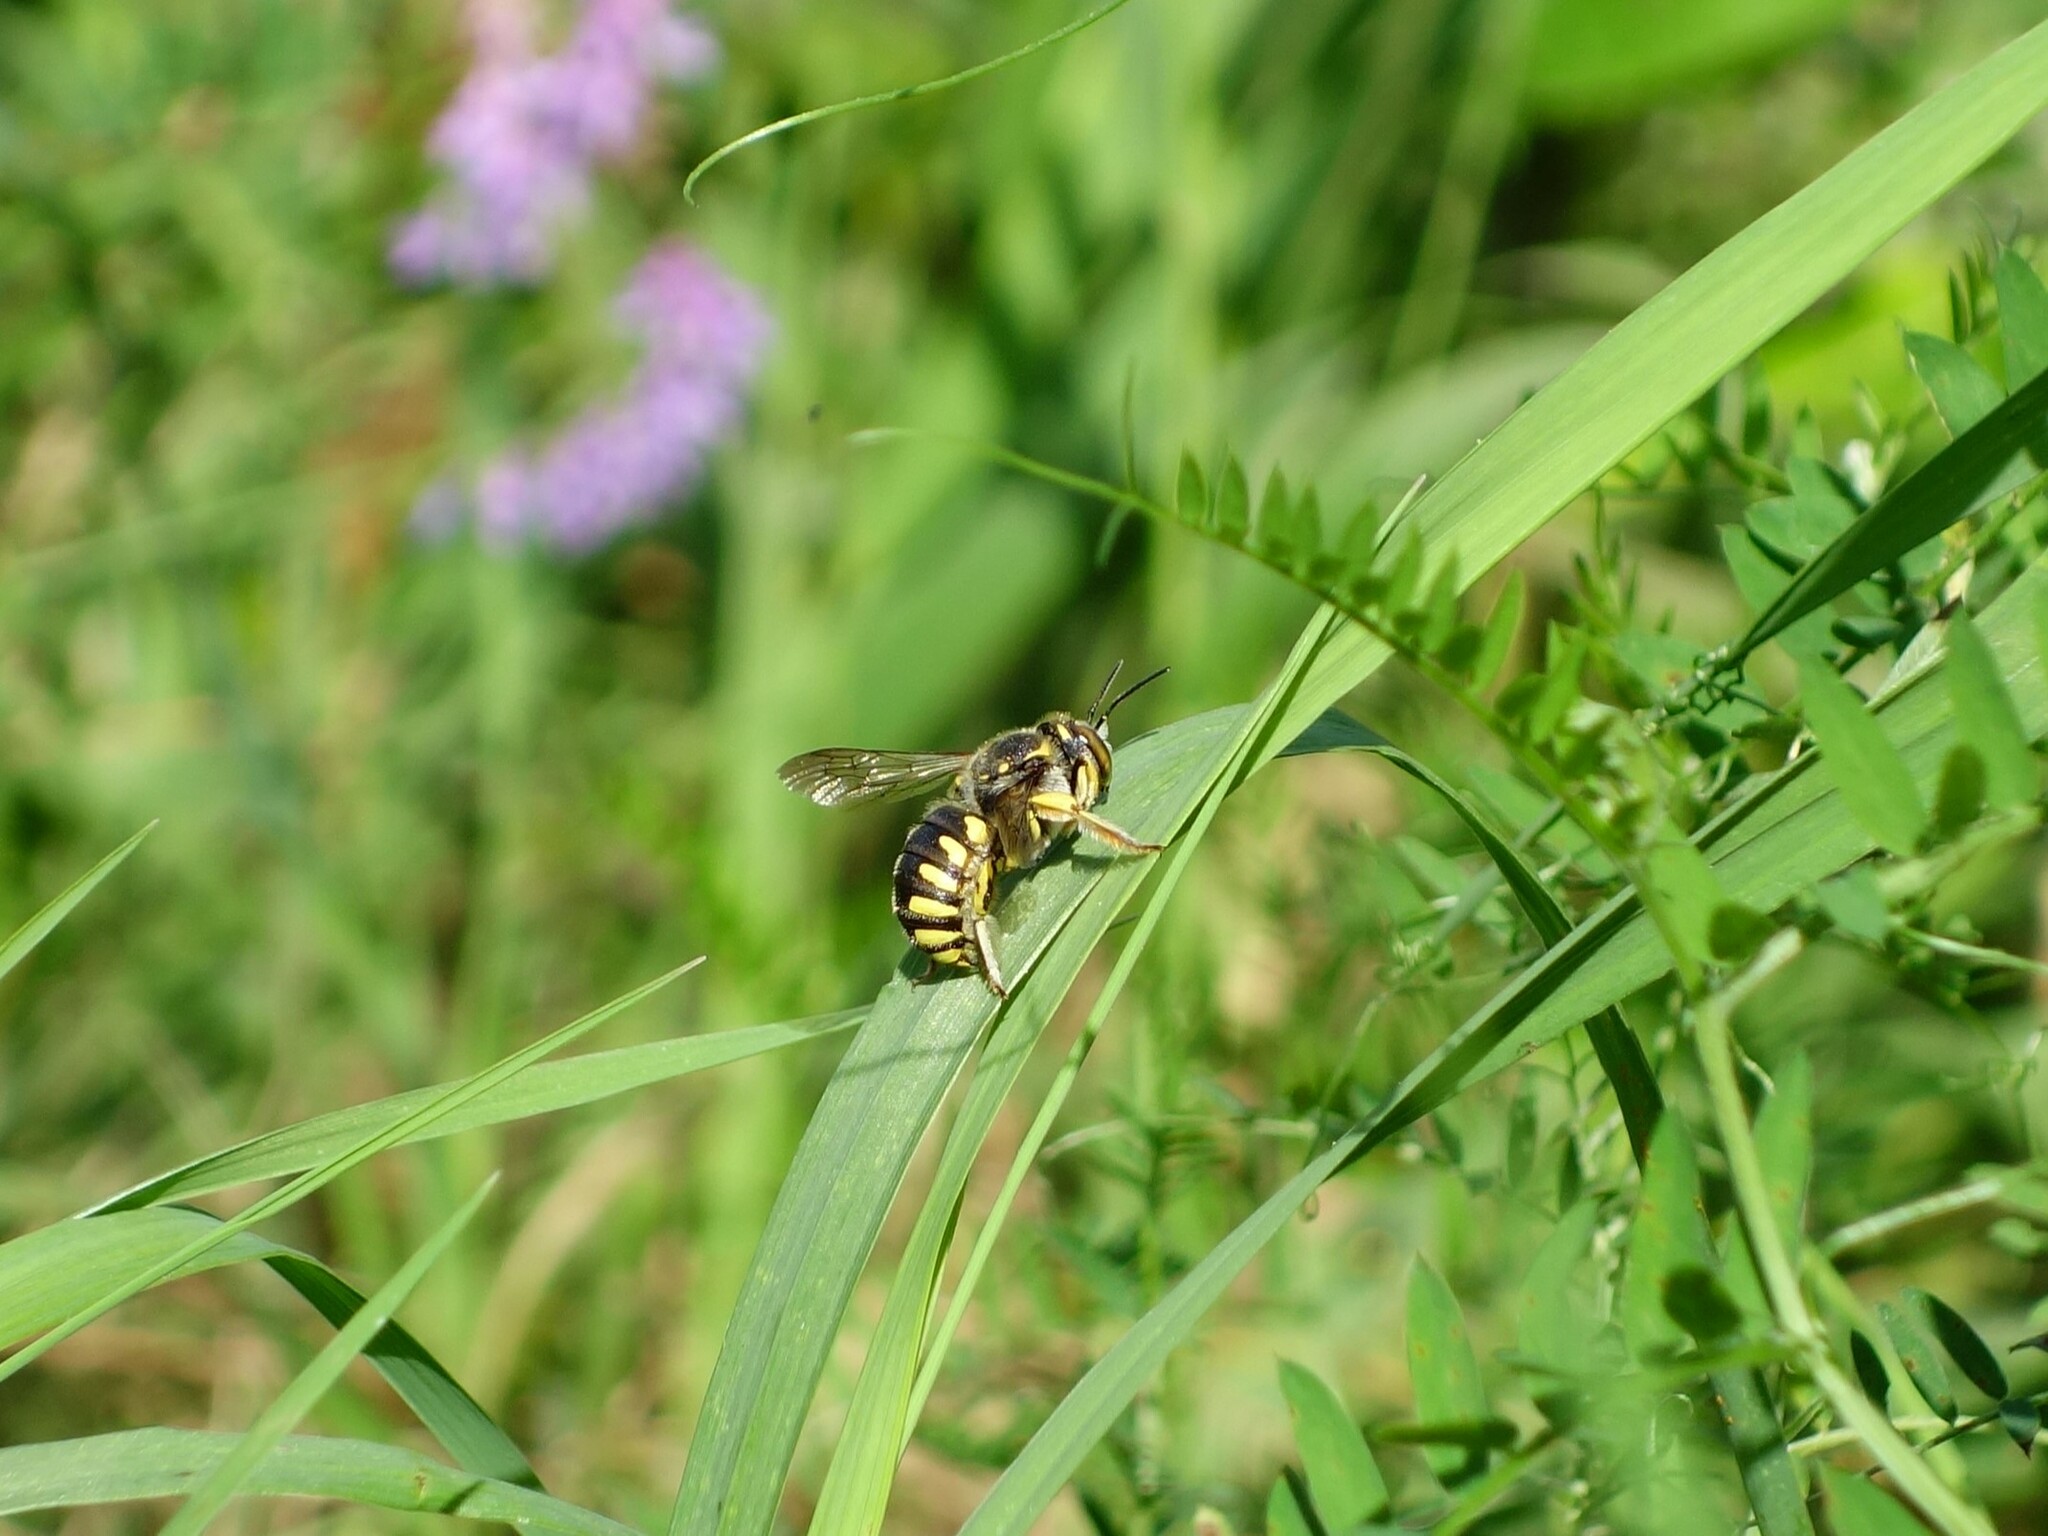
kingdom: Animalia
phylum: Arthropoda
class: Insecta
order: Hymenoptera
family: Megachilidae
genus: Anthidium
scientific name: Anthidium florentinum
